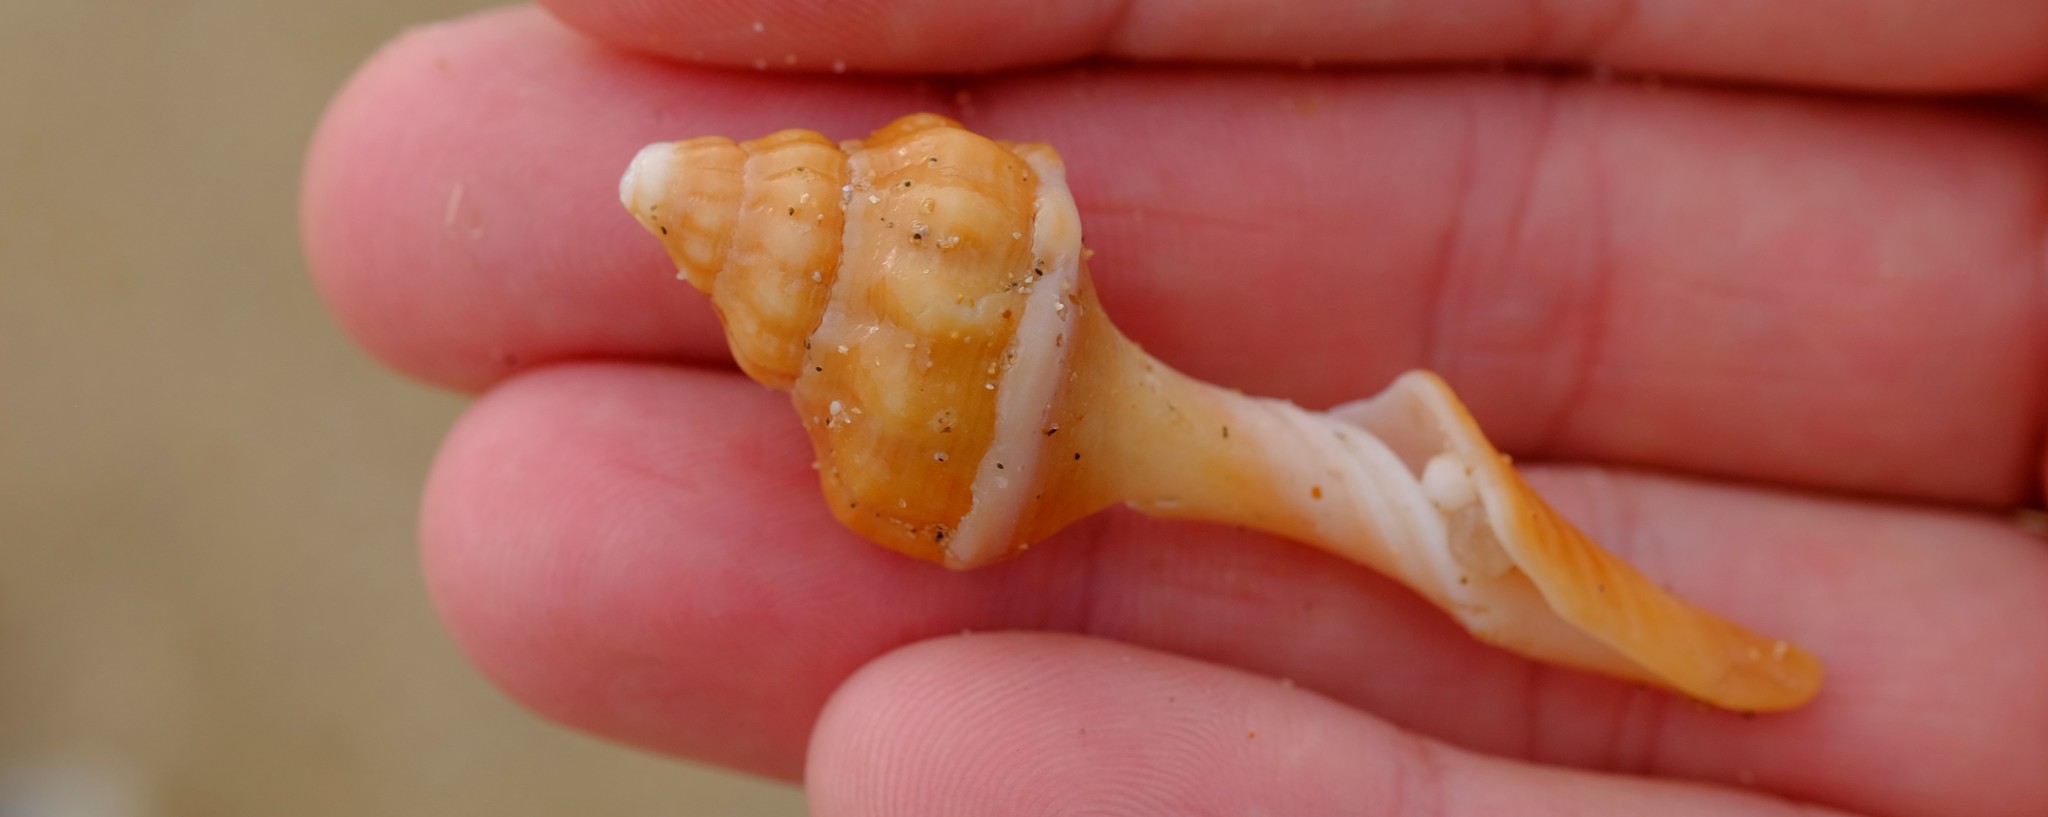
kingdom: Animalia
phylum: Mollusca
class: Gastropoda
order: Neogastropoda
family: Fasciolariidae
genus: Australaria
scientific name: Australaria australasia
